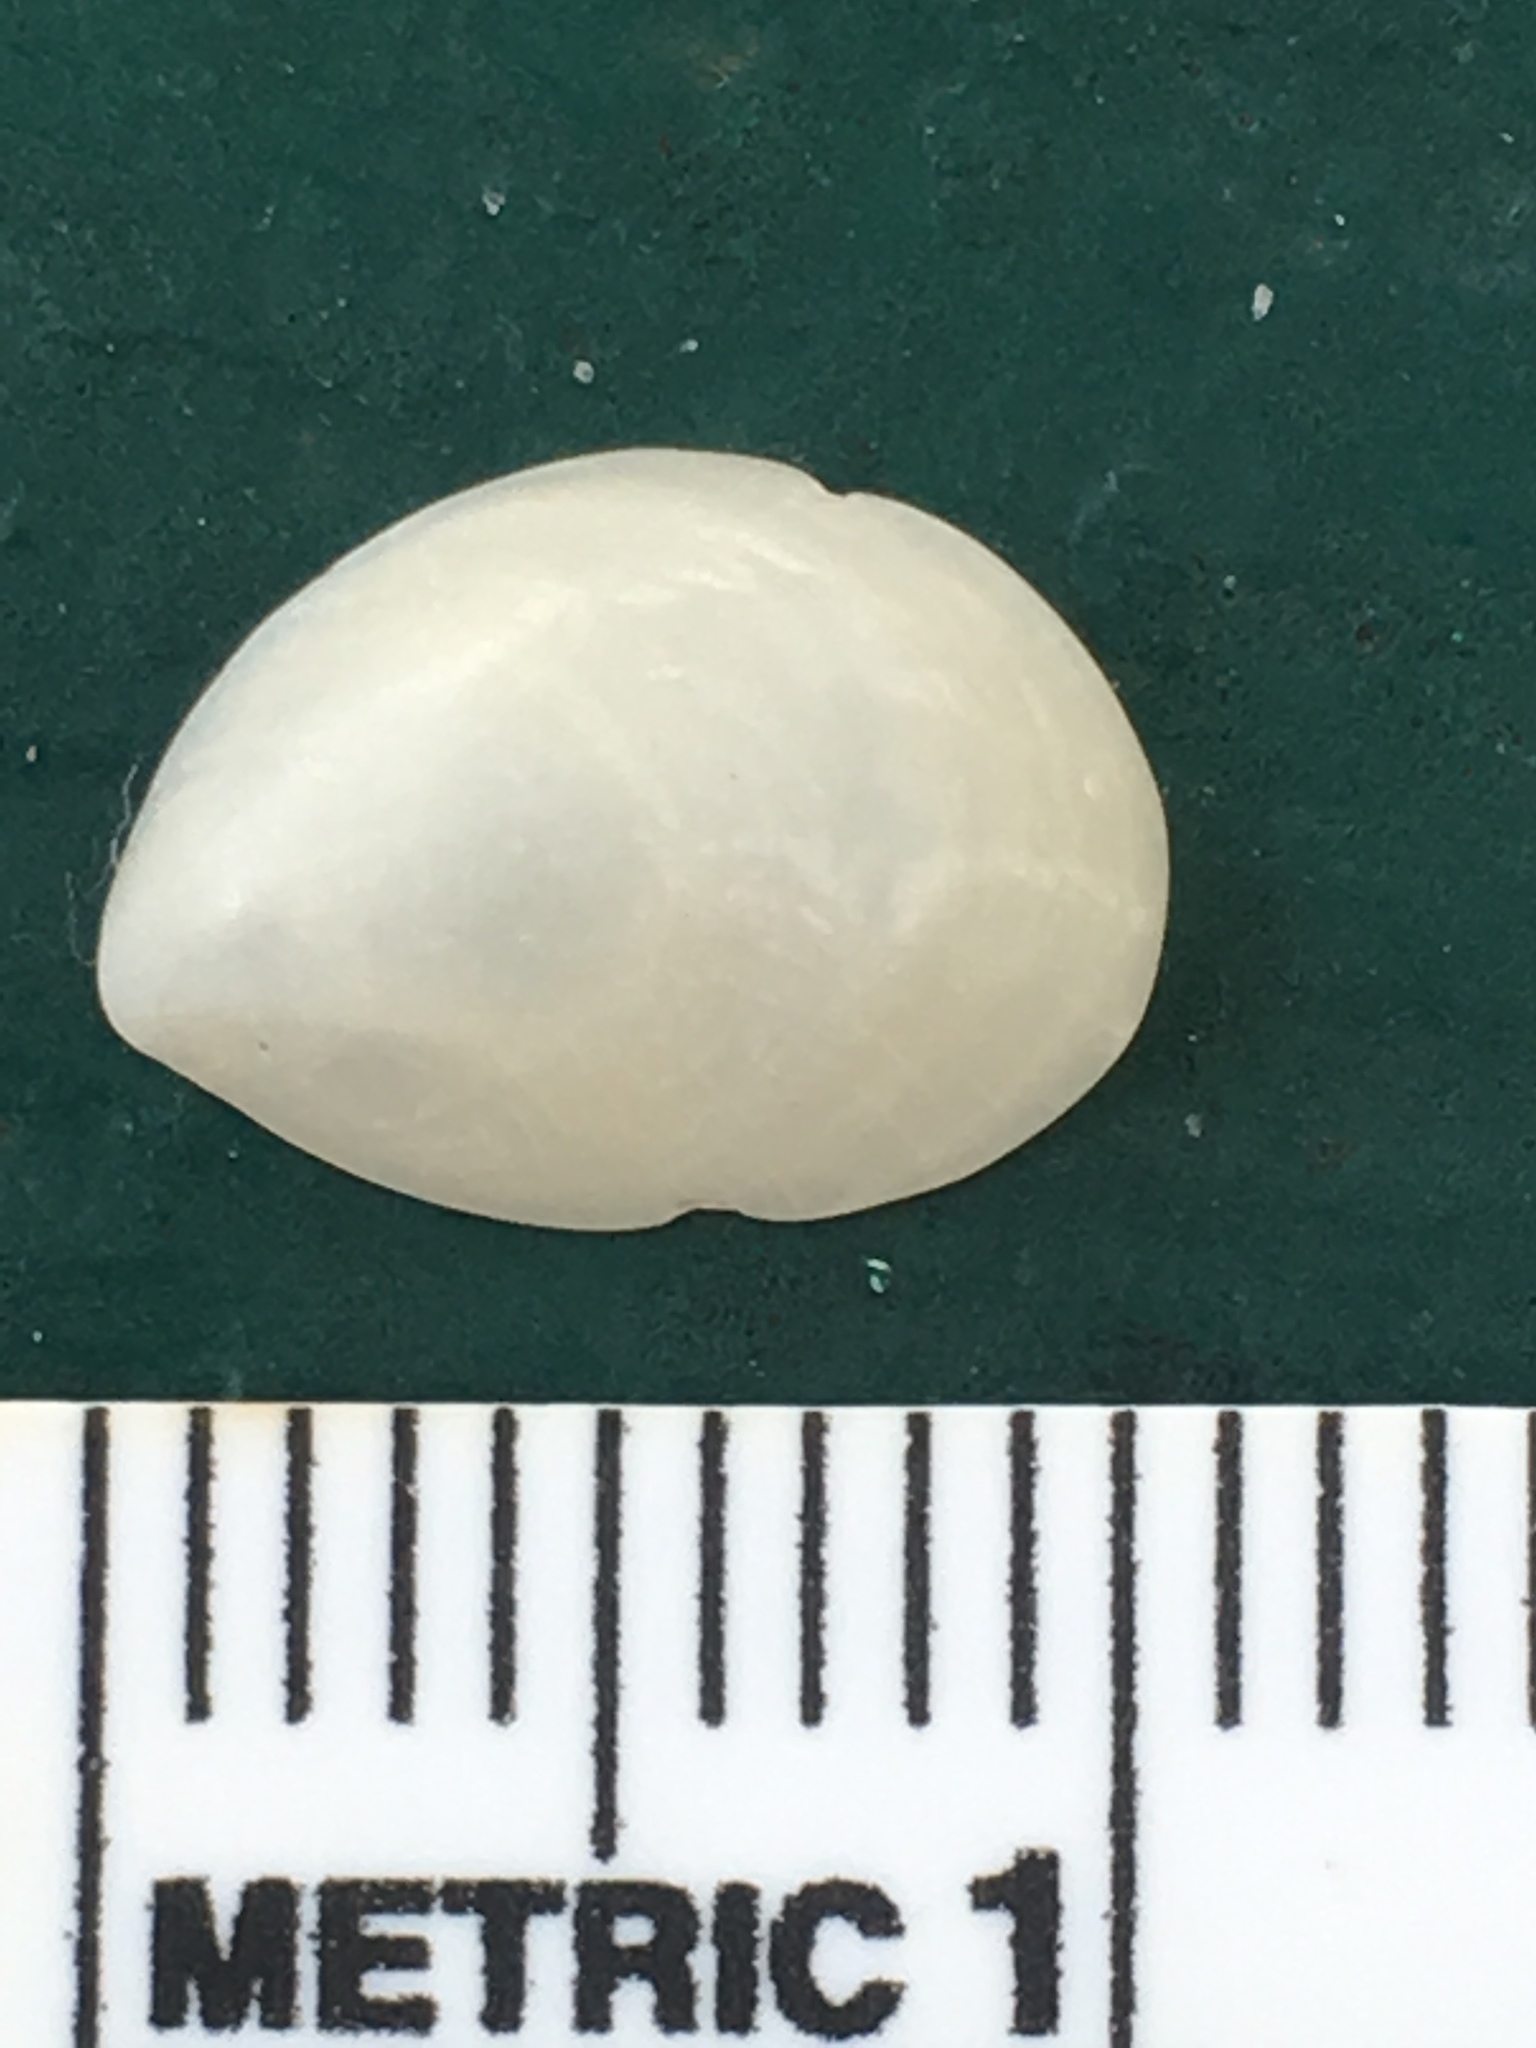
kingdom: Animalia
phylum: Mollusca
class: Gastropoda
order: Littorinimorpha
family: Calyptraeidae
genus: Crepidula
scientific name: Crepidula fornicata
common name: Slipper limpet
